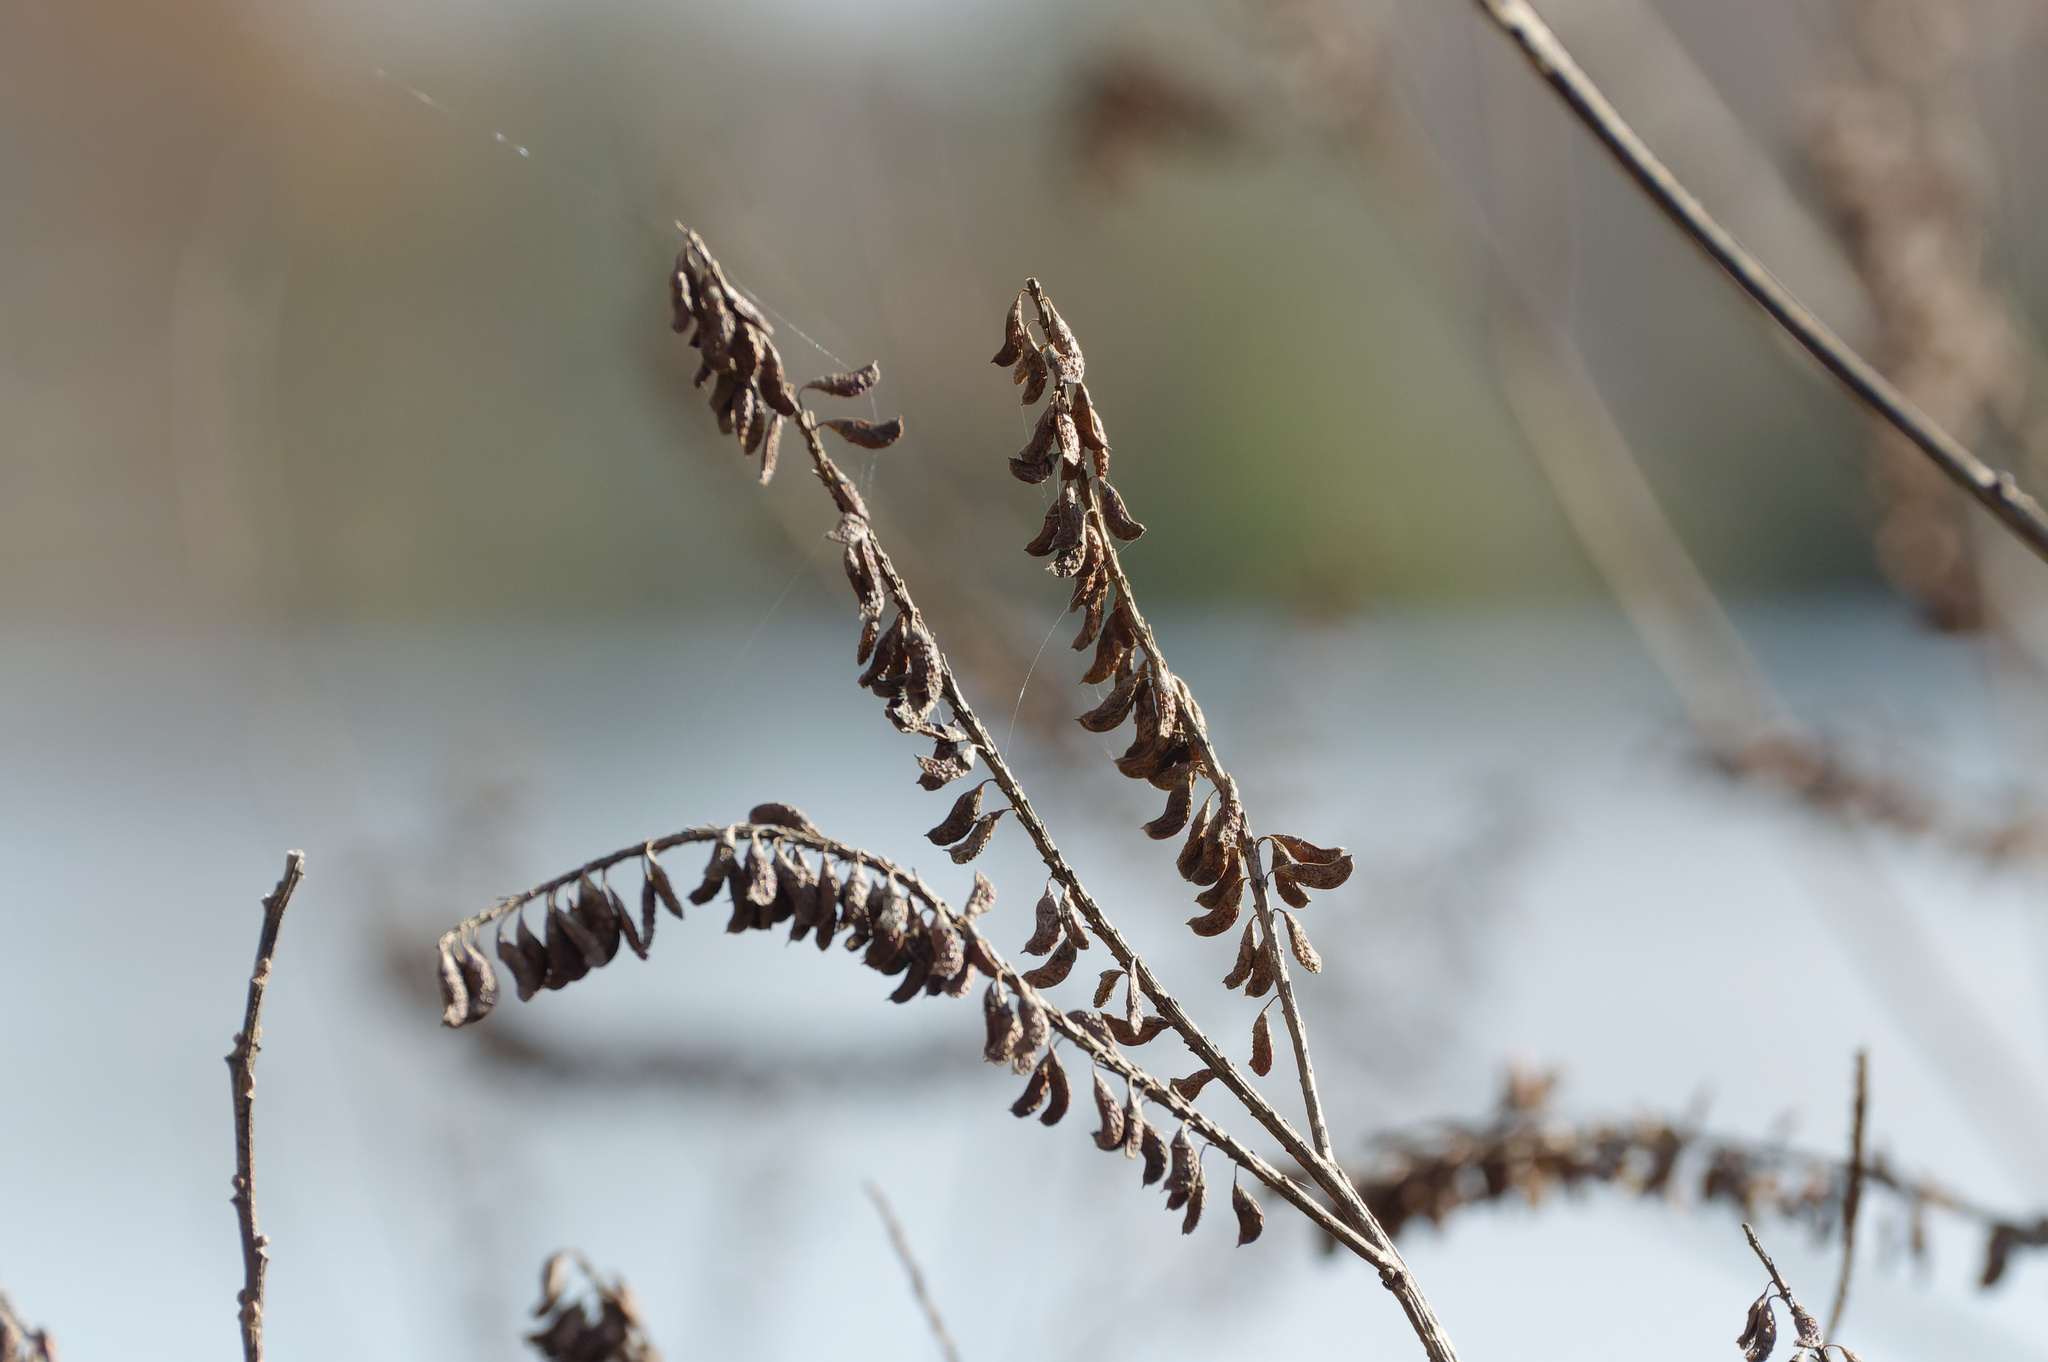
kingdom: Plantae
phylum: Tracheophyta
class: Magnoliopsida
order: Fabales
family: Fabaceae
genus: Amorpha
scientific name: Amorpha fruticosa
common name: False indigo
